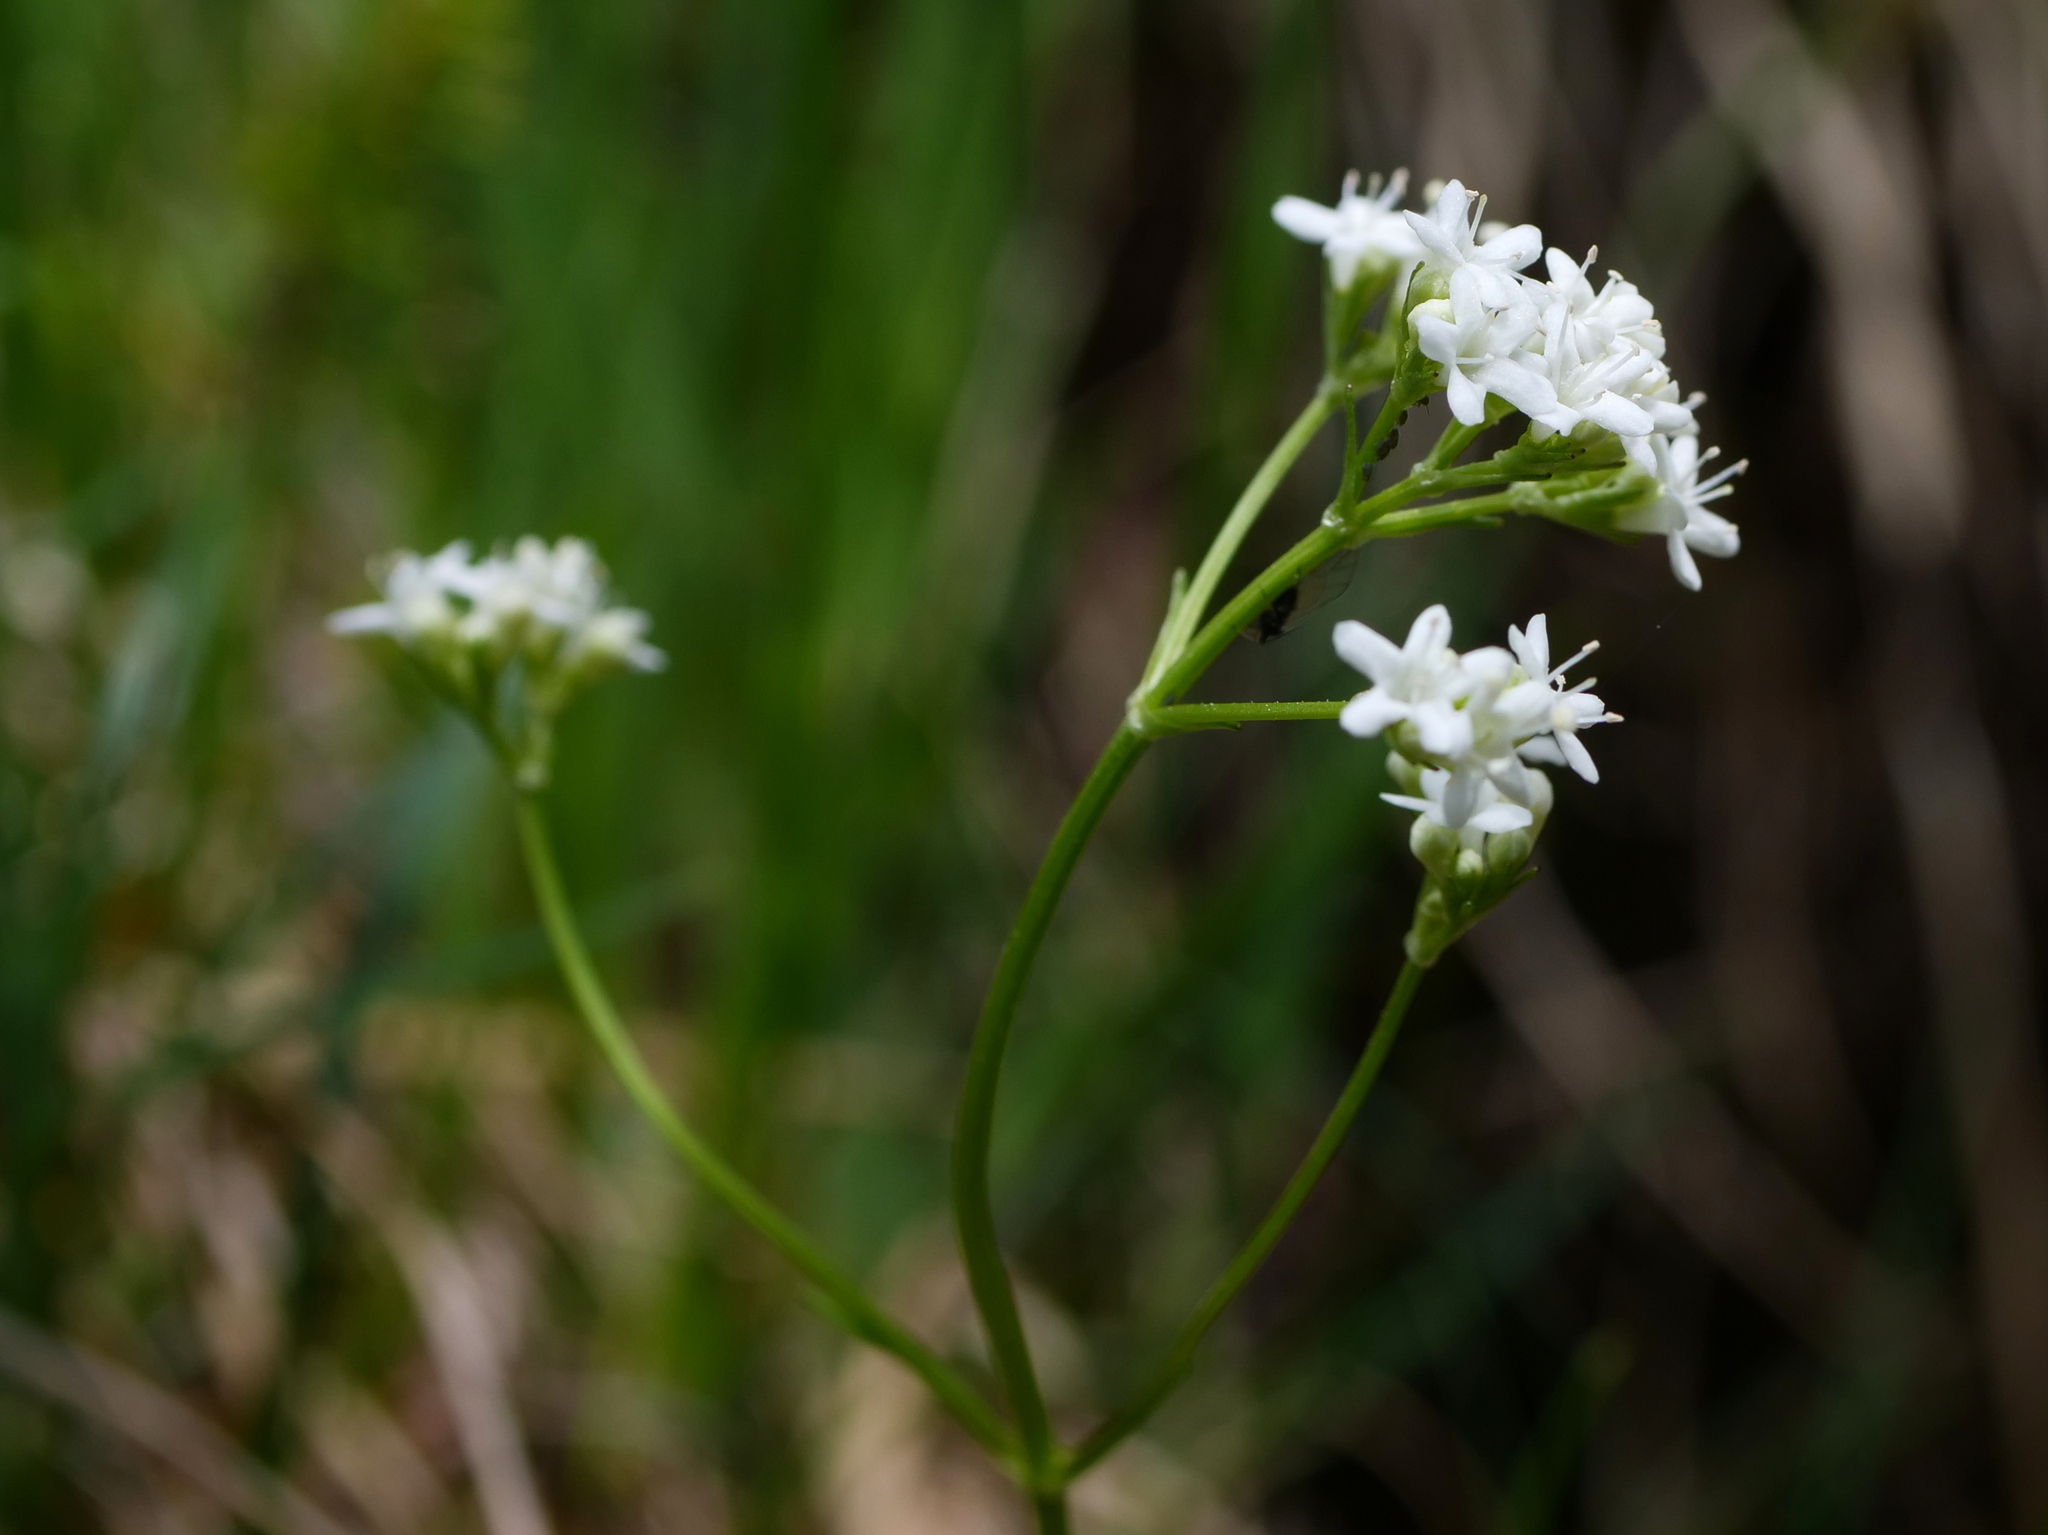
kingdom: Plantae
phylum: Tracheophyta
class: Magnoliopsida
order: Dipsacales
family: Caprifoliaceae
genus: Valeriana
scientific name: Valeriana saxatilis
